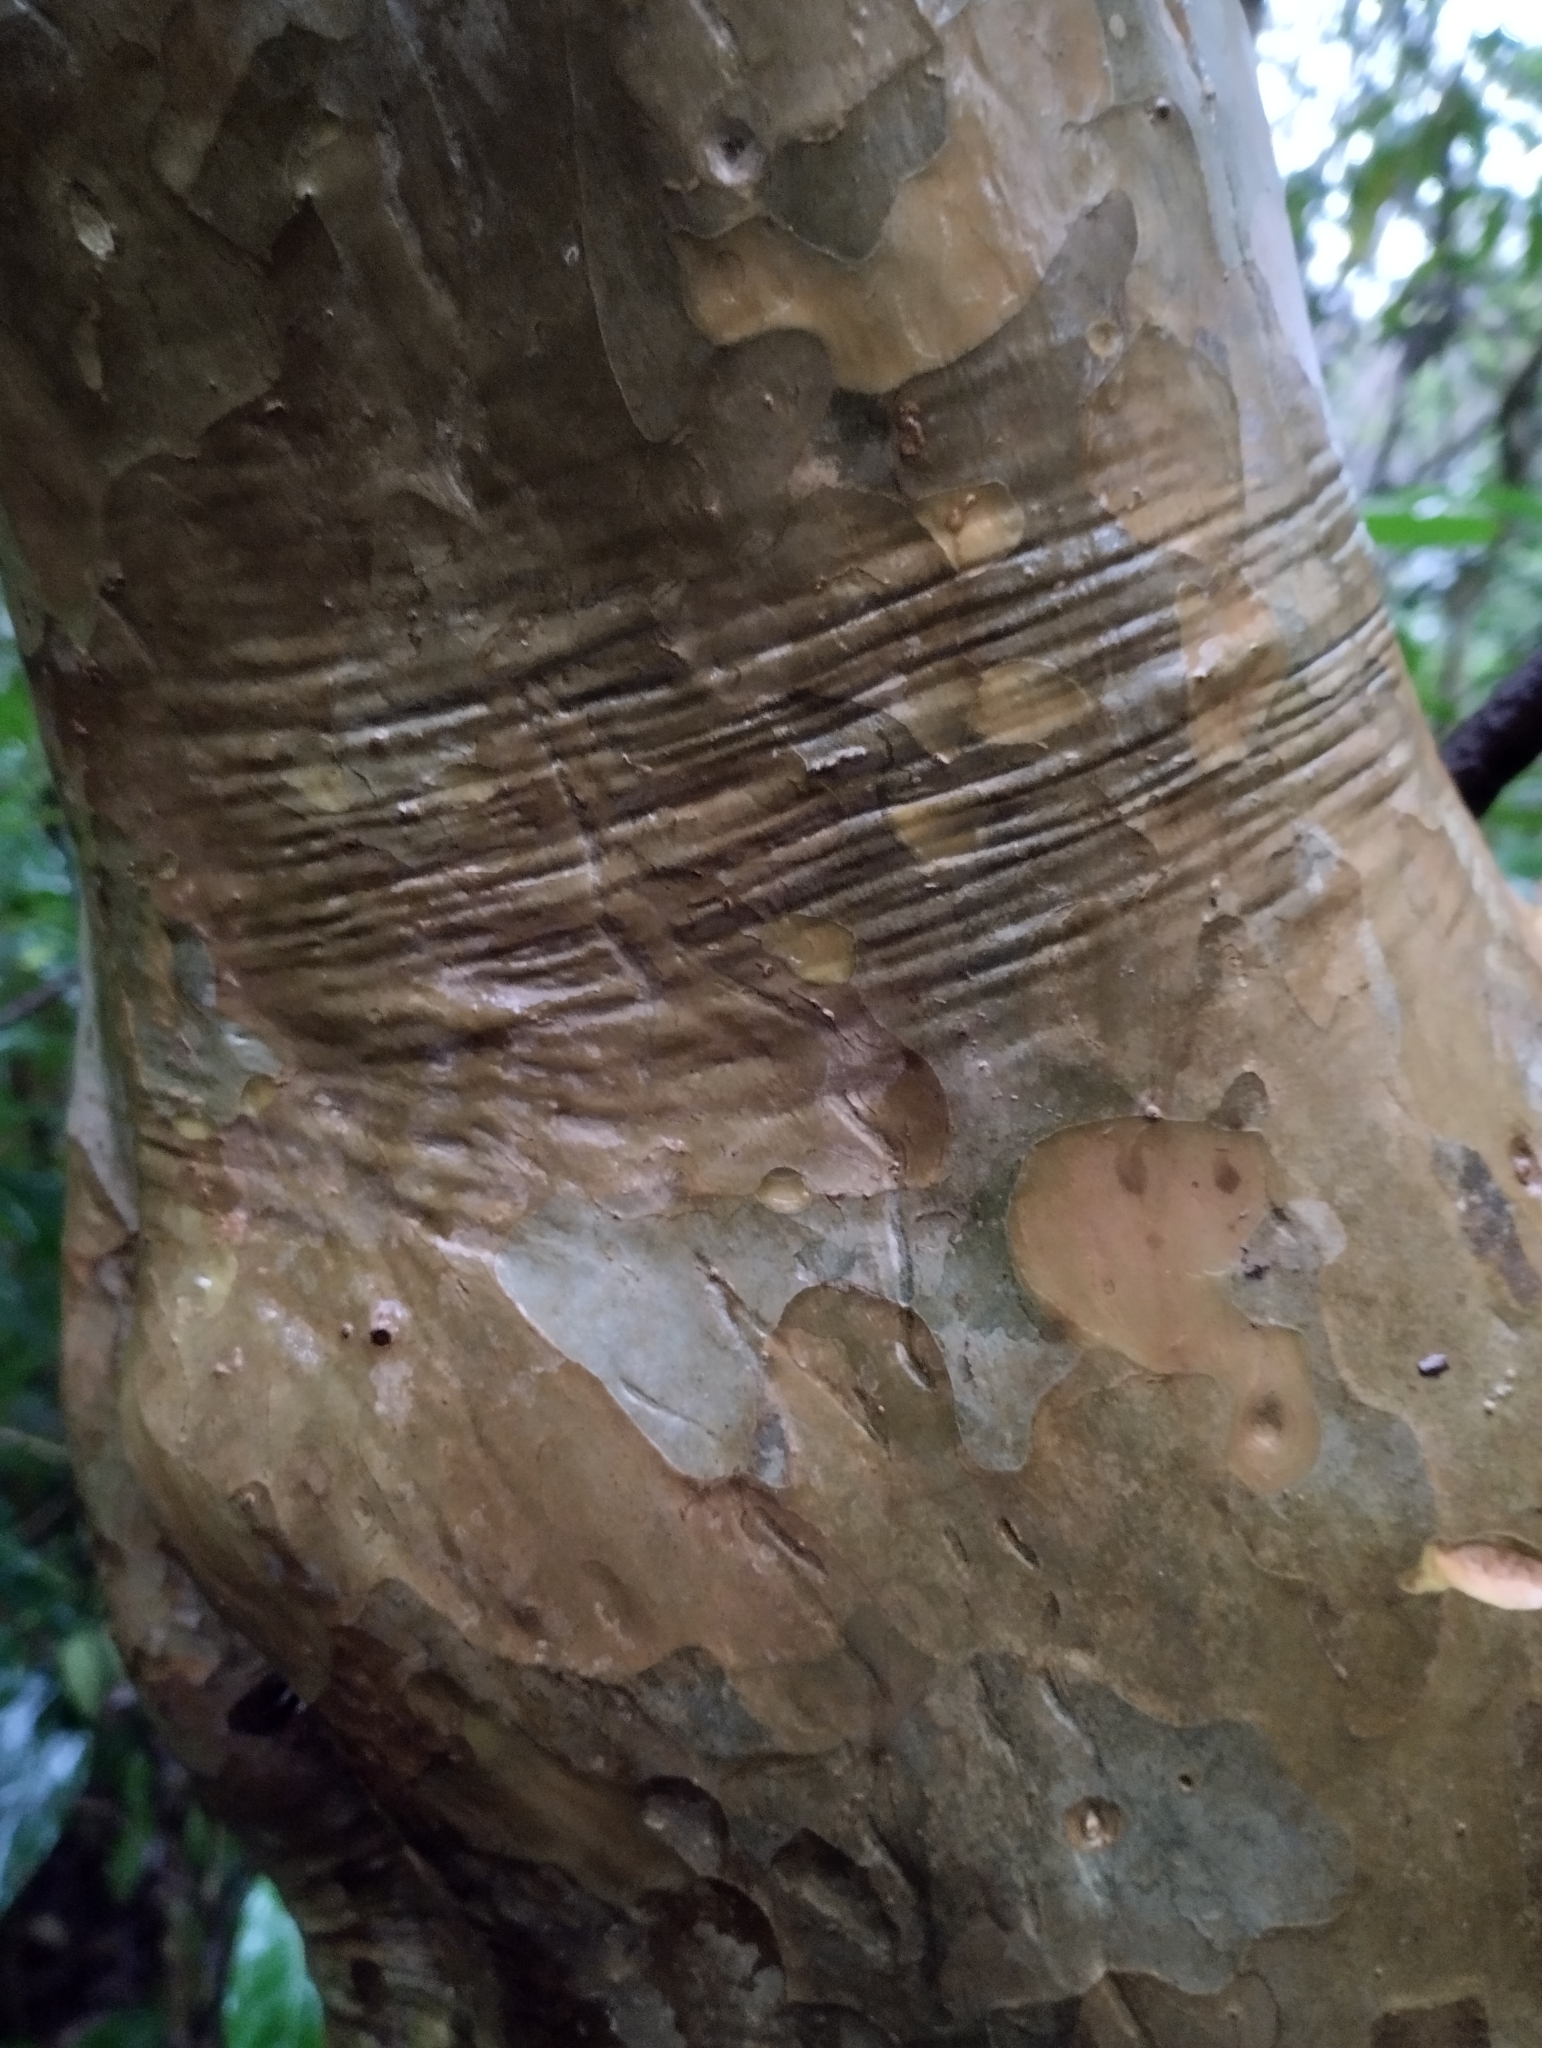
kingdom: Plantae
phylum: Tracheophyta
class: Magnoliopsida
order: Myrtales
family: Myrtaceae
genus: Myrcianthes
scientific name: Myrcianthes cisplatensis
